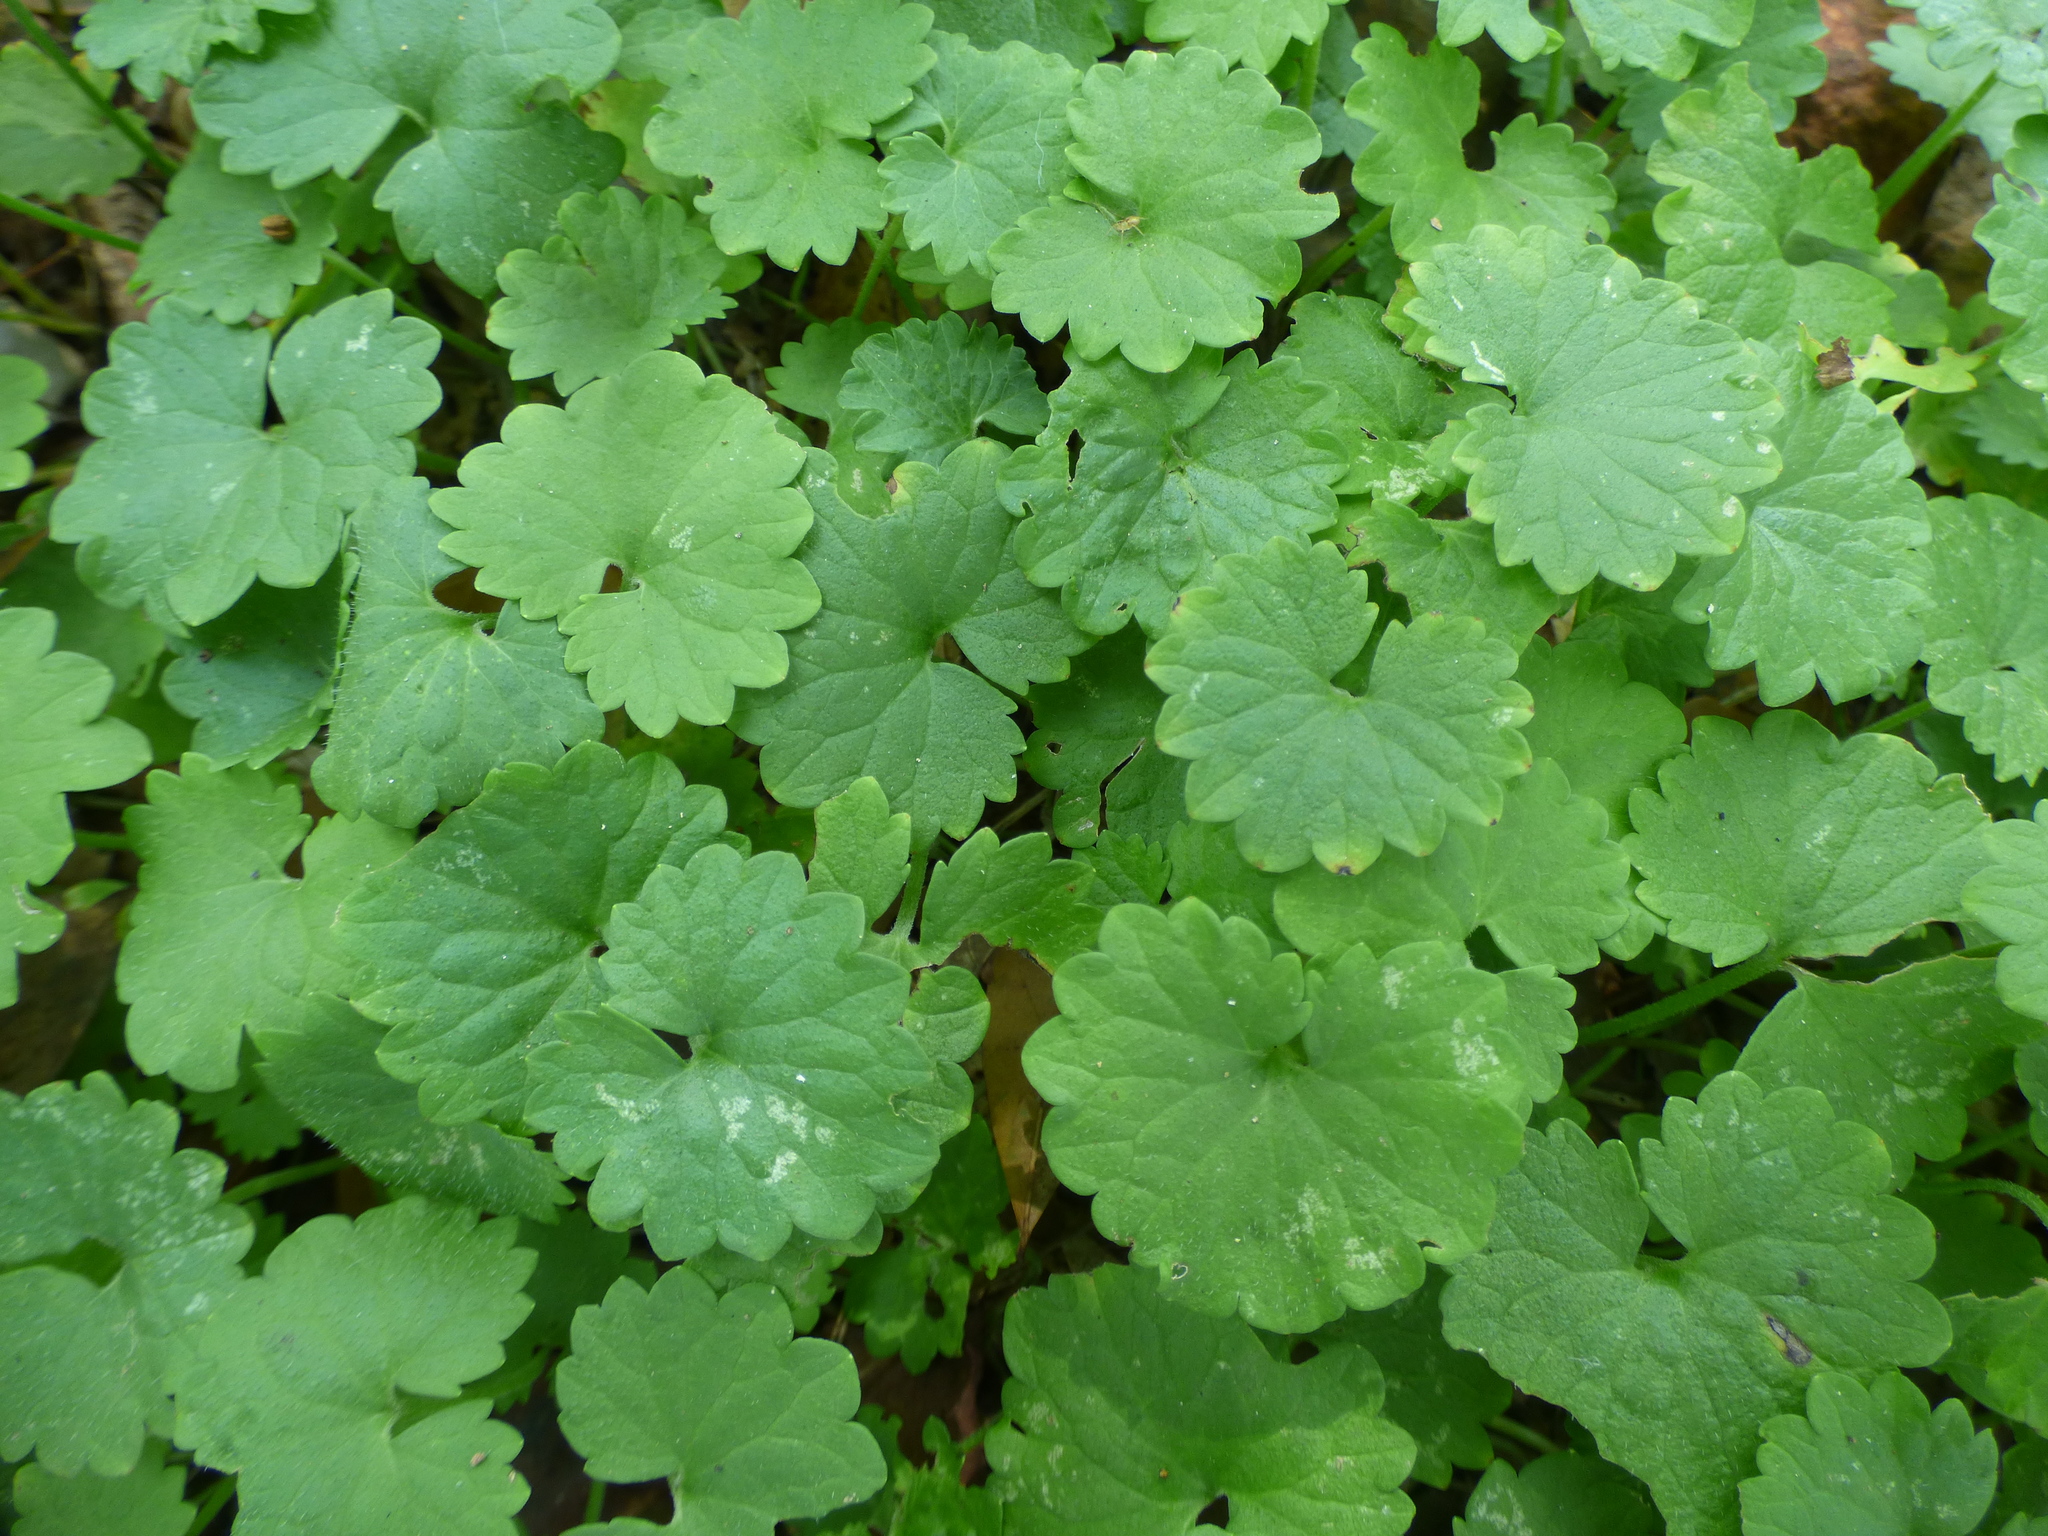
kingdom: Plantae
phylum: Tracheophyta
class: Magnoliopsida
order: Lamiales
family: Lamiaceae
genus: Glechoma
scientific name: Glechoma hederacea
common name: Ground ivy
